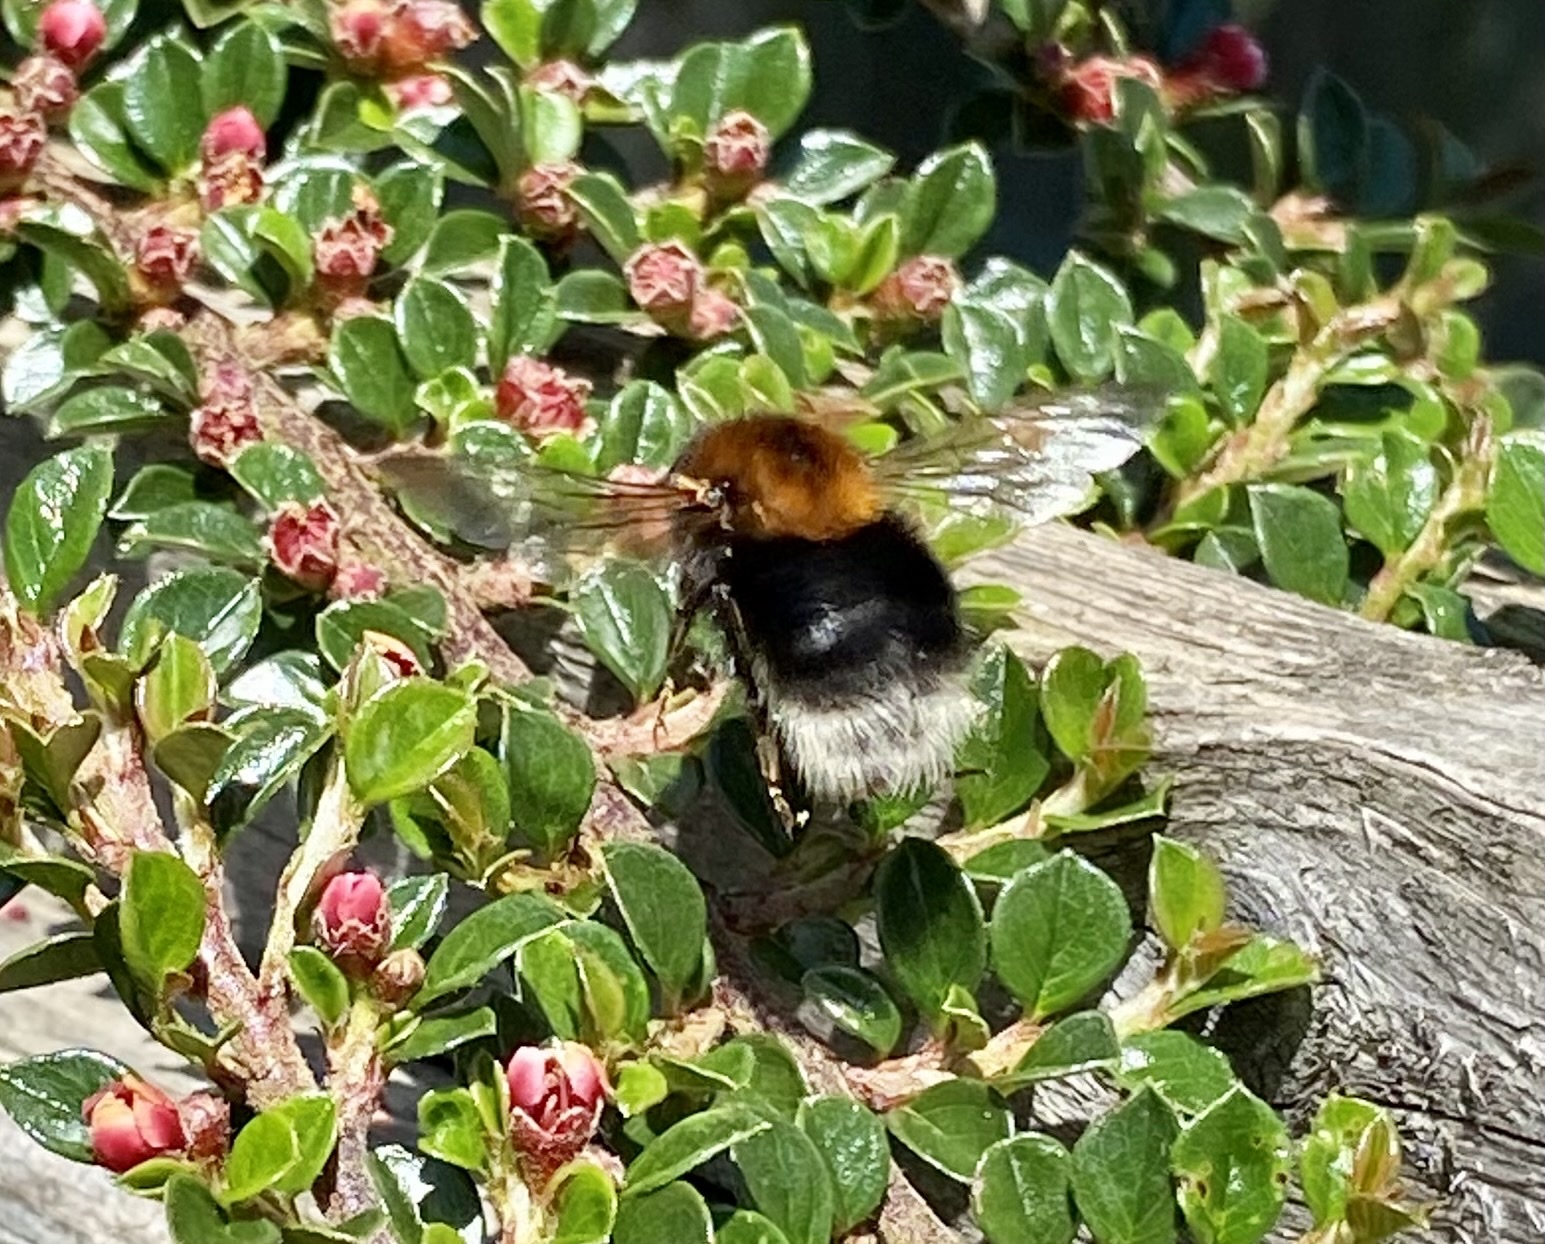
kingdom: Animalia
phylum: Arthropoda
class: Insecta
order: Hymenoptera
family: Apidae
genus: Bombus
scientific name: Bombus hypnorum
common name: New garden bumblebee
